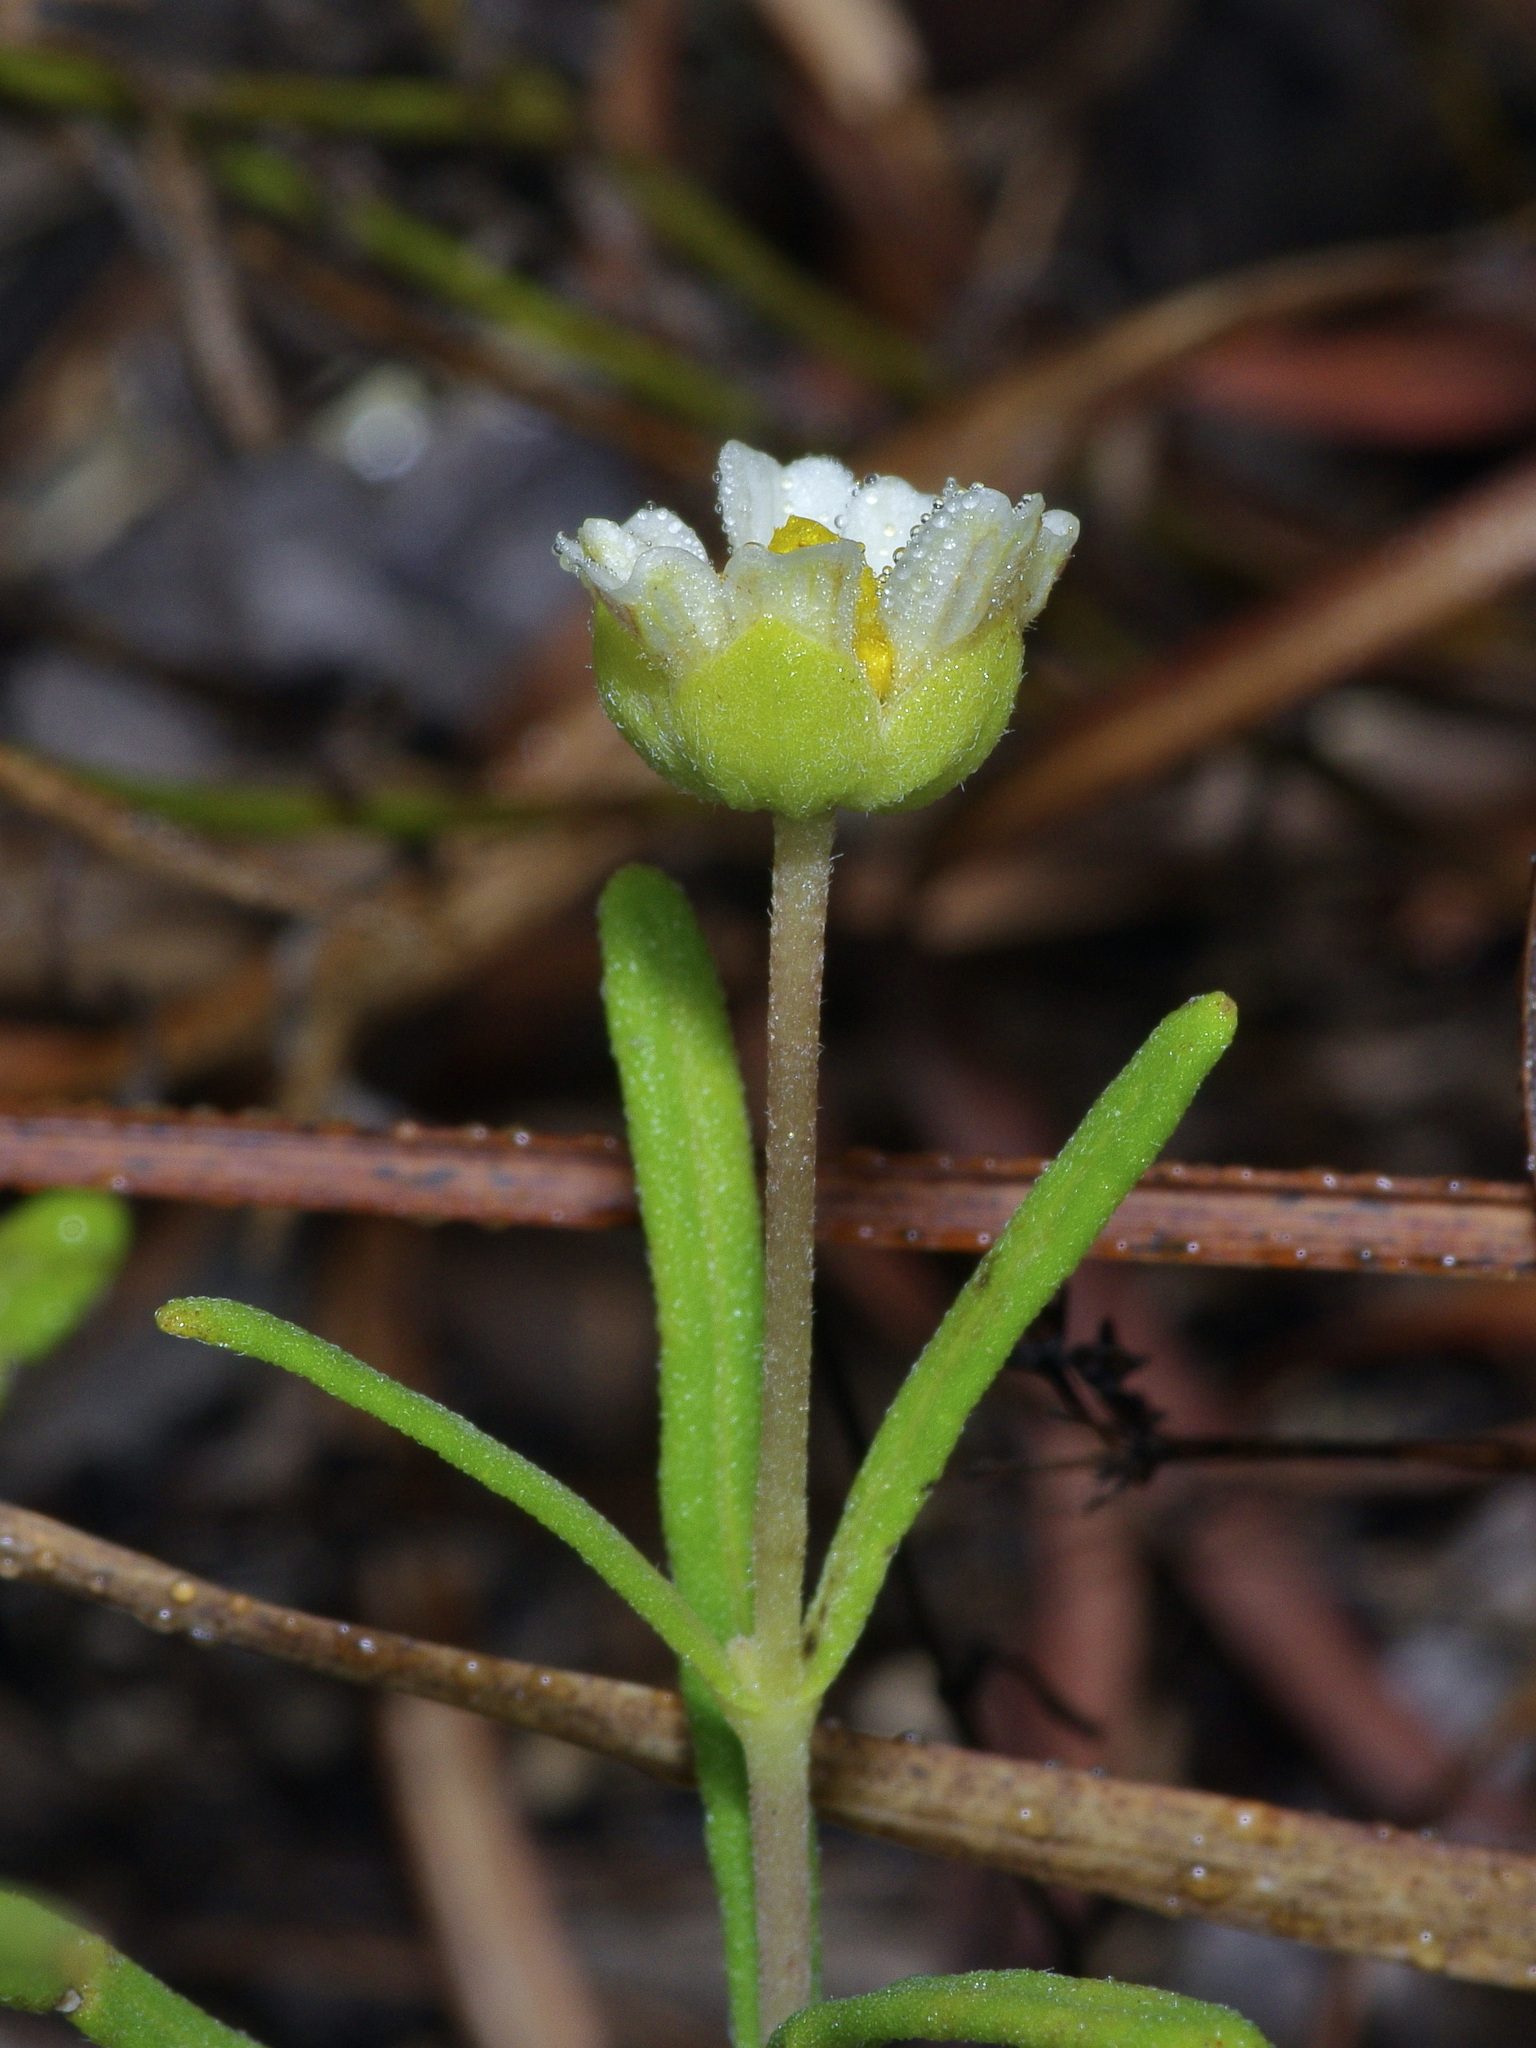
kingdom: Plantae
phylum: Tracheophyta
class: Magnoliopsida
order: Asterales
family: Asteraceae
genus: Melampodium
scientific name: Melampodium leucanthum
